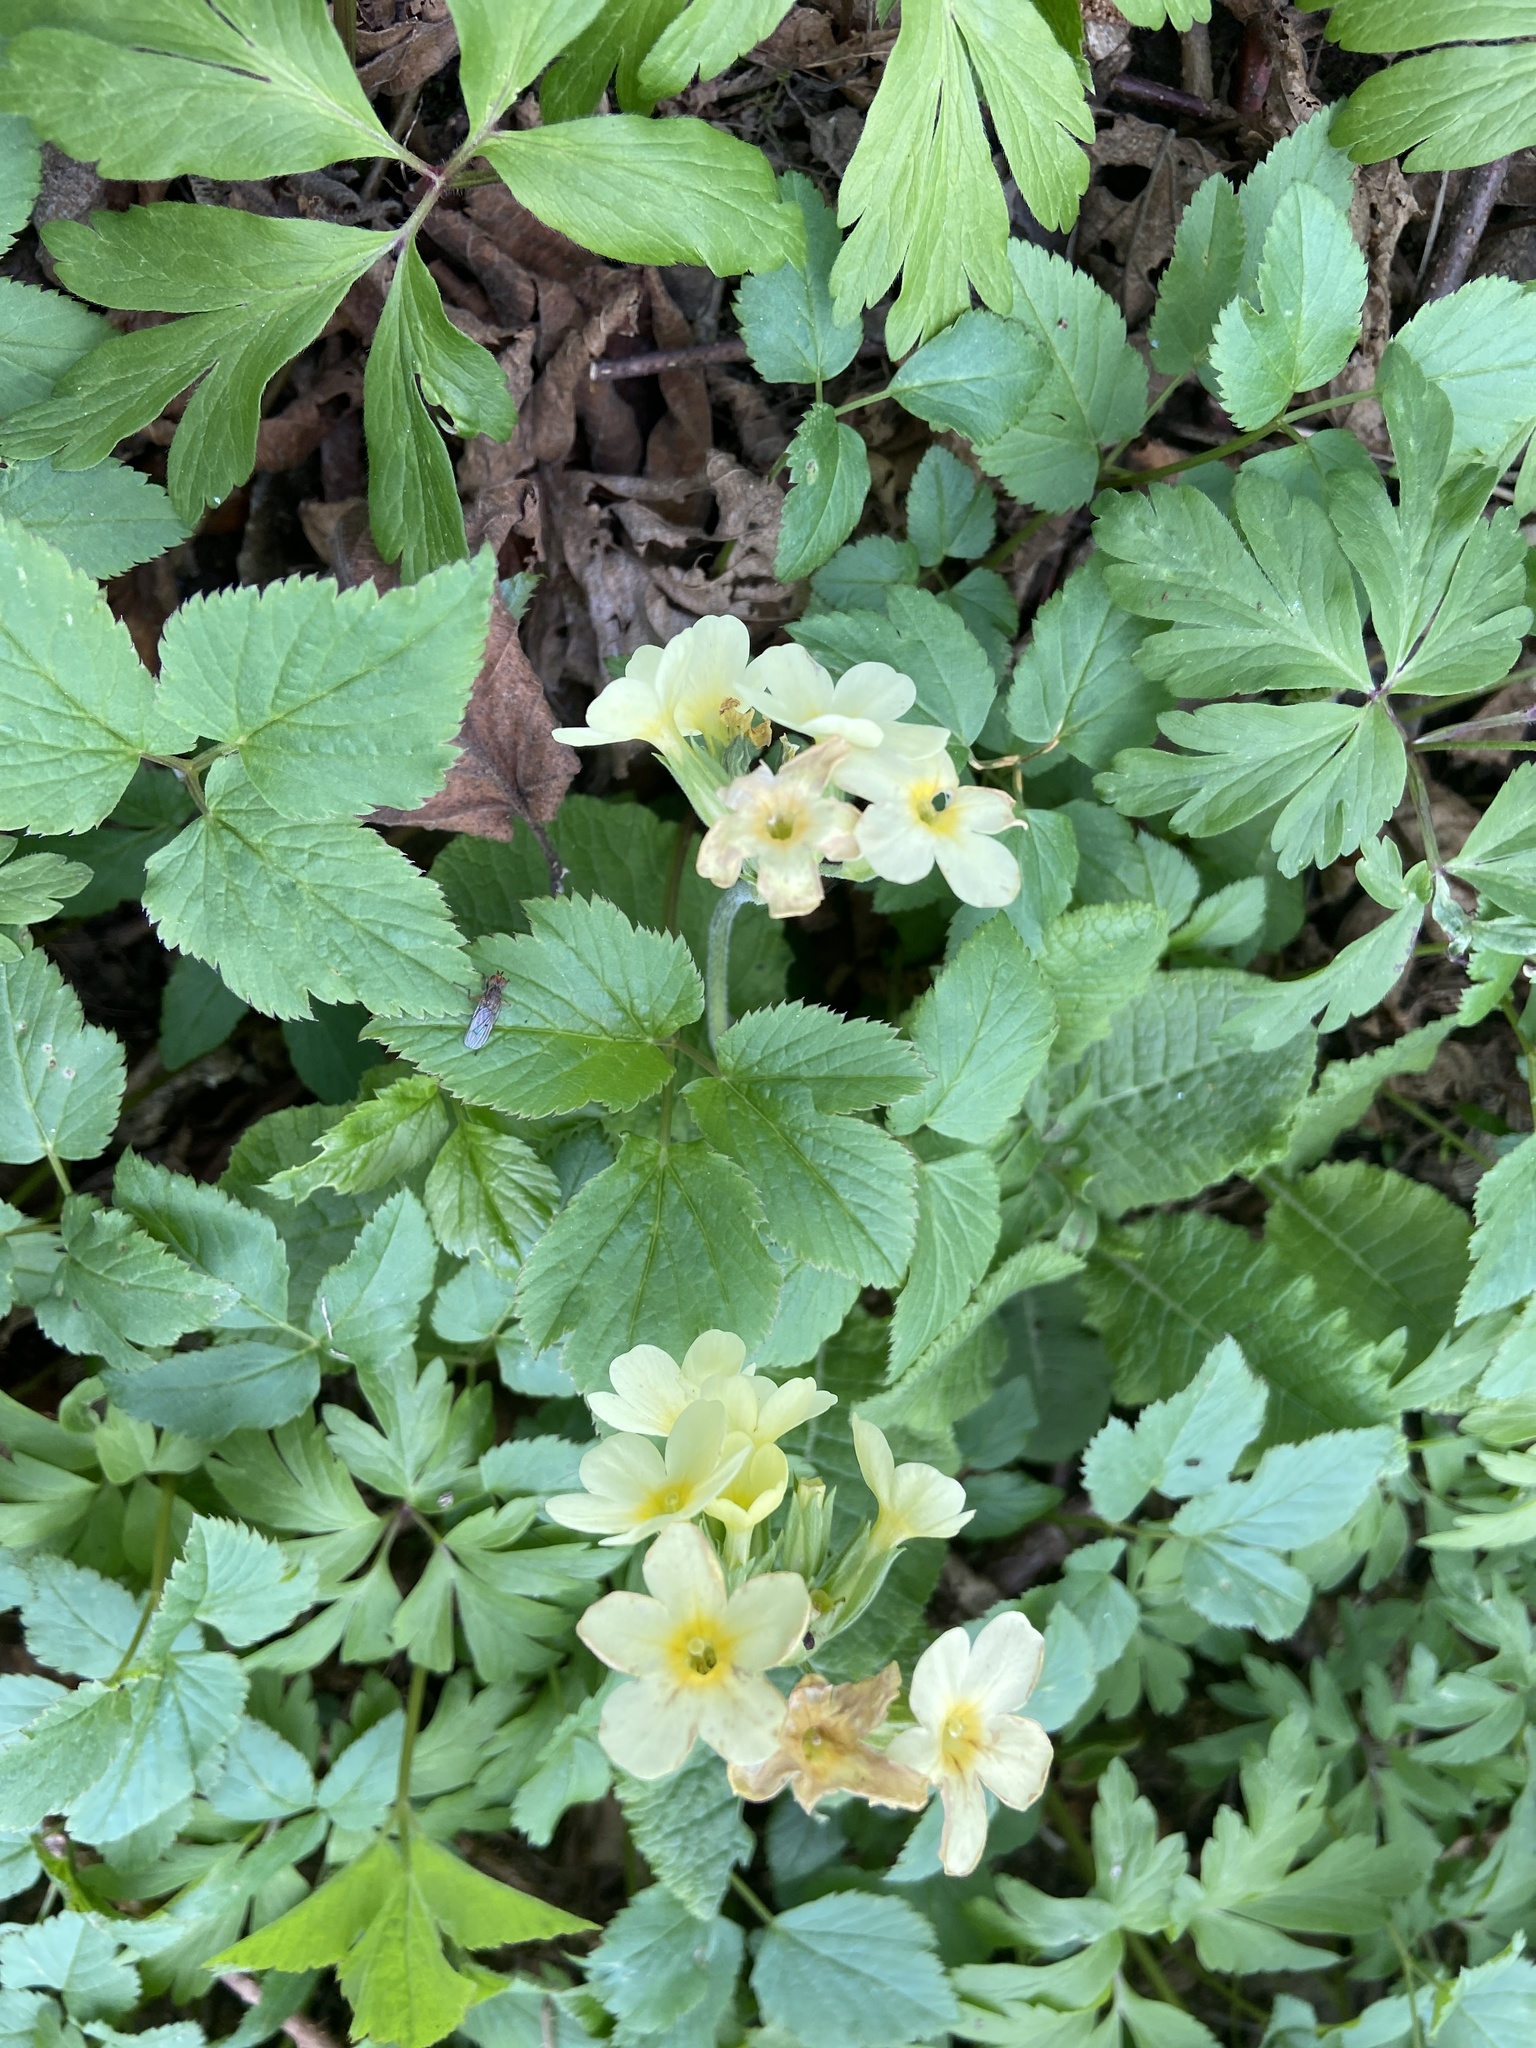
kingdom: Plantae
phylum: Tracheophyta
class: Magnoliopsida
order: Ericales
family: Primulaceae
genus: Primula
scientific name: Primula elatior
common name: Oxlip
